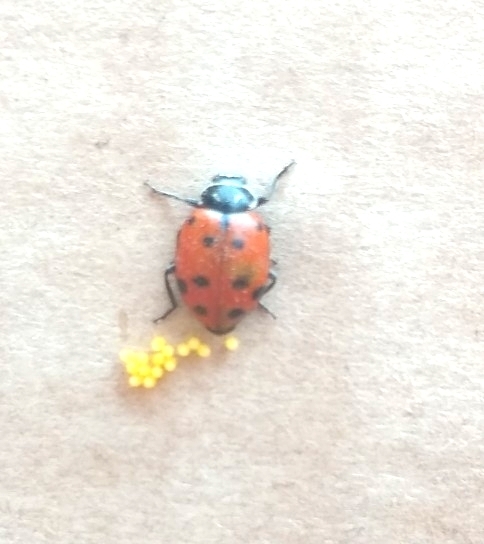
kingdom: Animalia
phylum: Arthropoda
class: Insecta
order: Coleoptera
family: Coccinellidae
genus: Hippodamia
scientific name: Hippodamia convergens
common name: Convergent lady beetle
